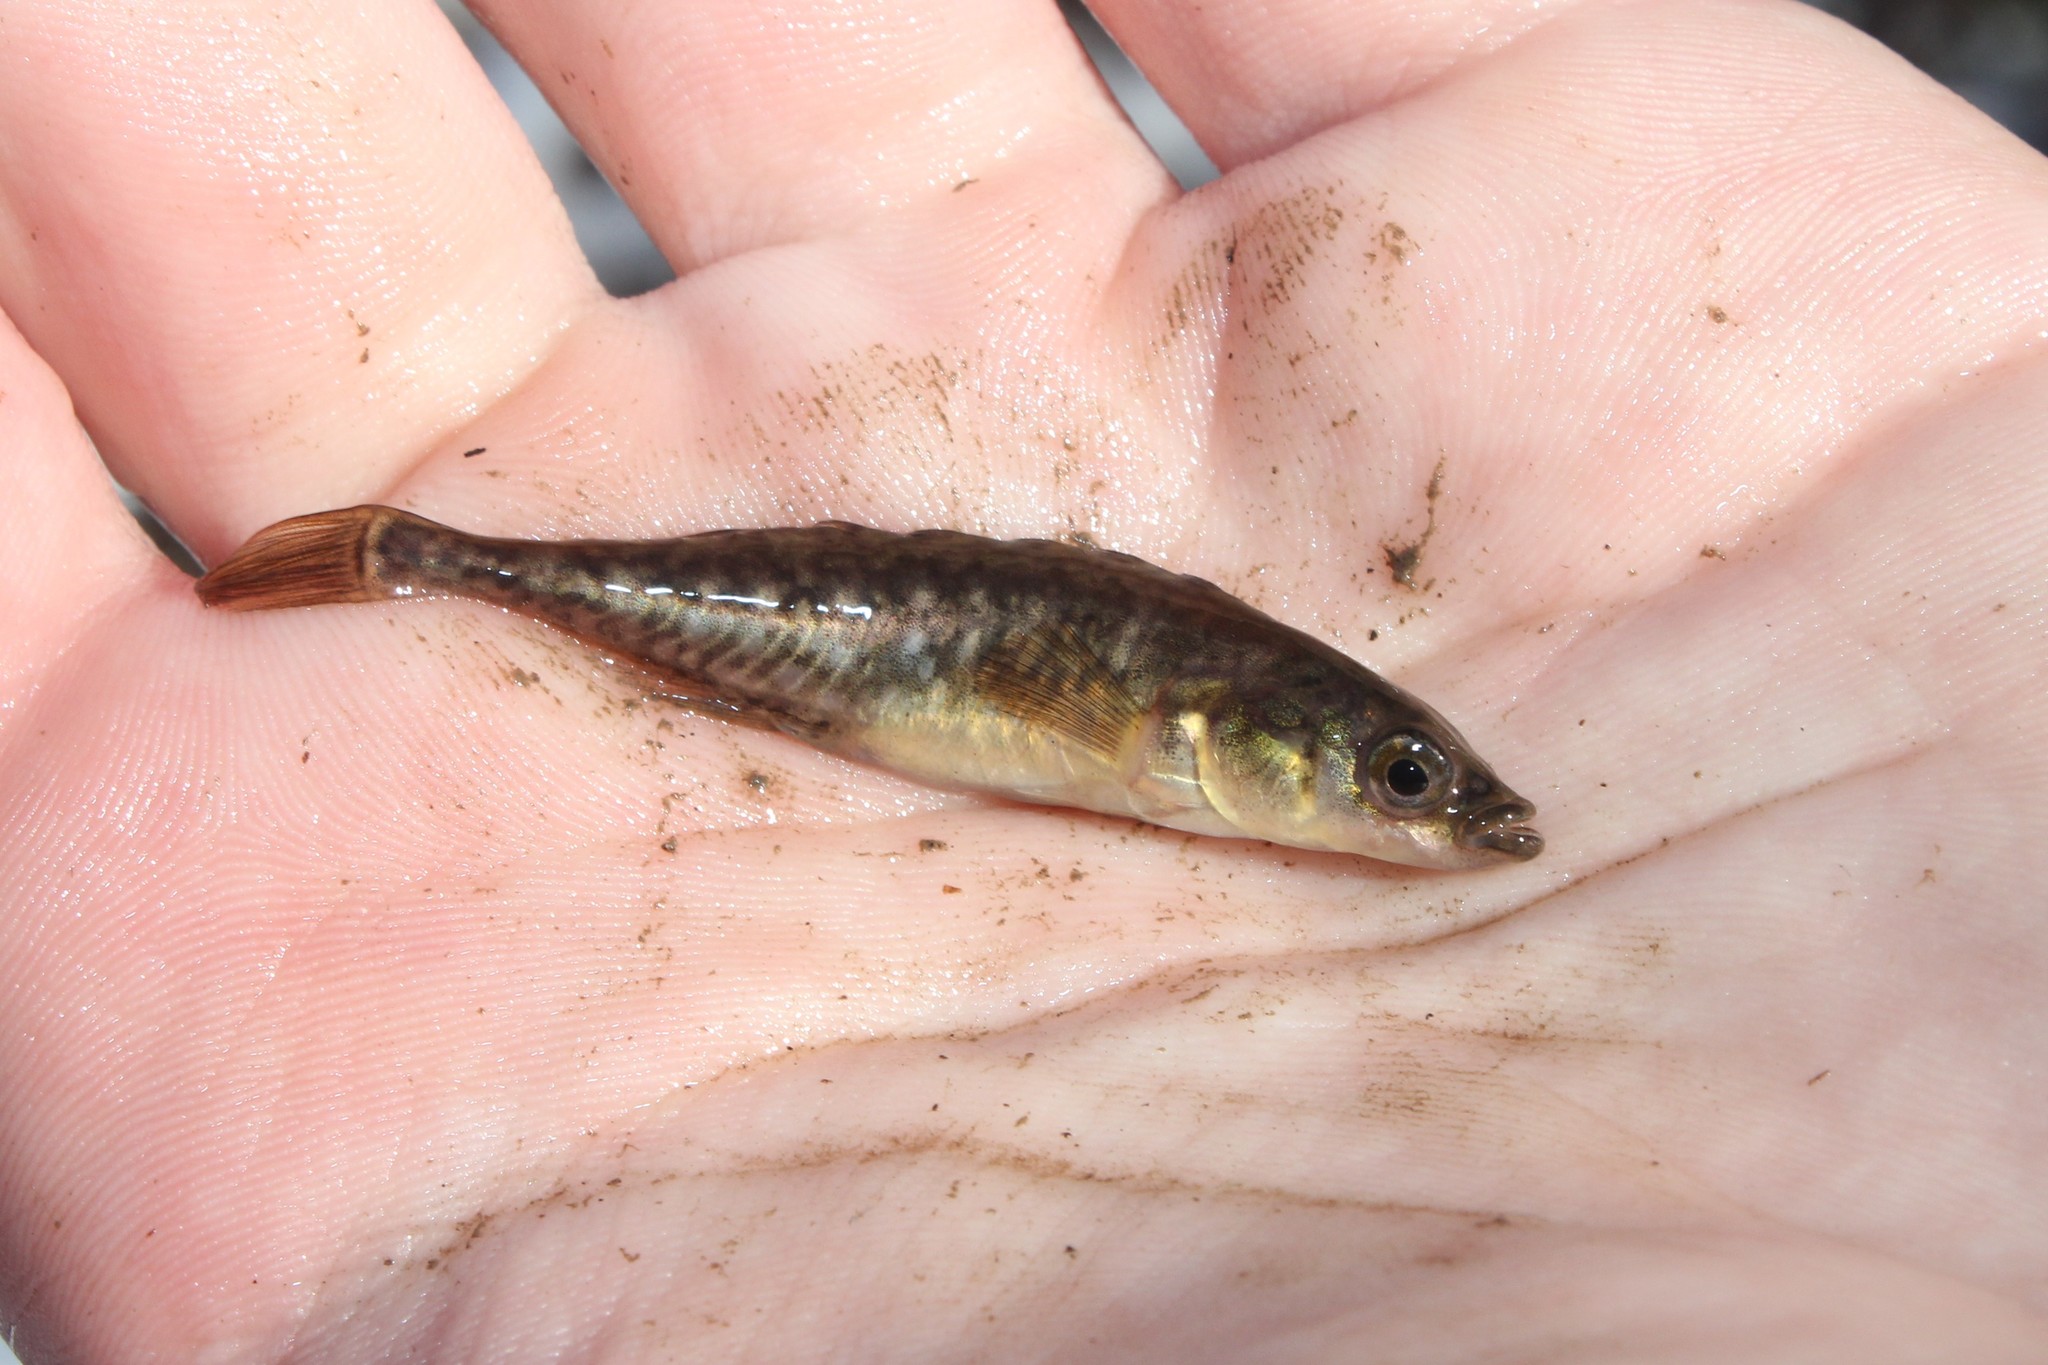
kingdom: Animalia
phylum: Chordata
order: Gasterosteiformes
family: Gasterosteidae
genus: Culaea
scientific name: Culaea inconstans
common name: Brook stickleback
